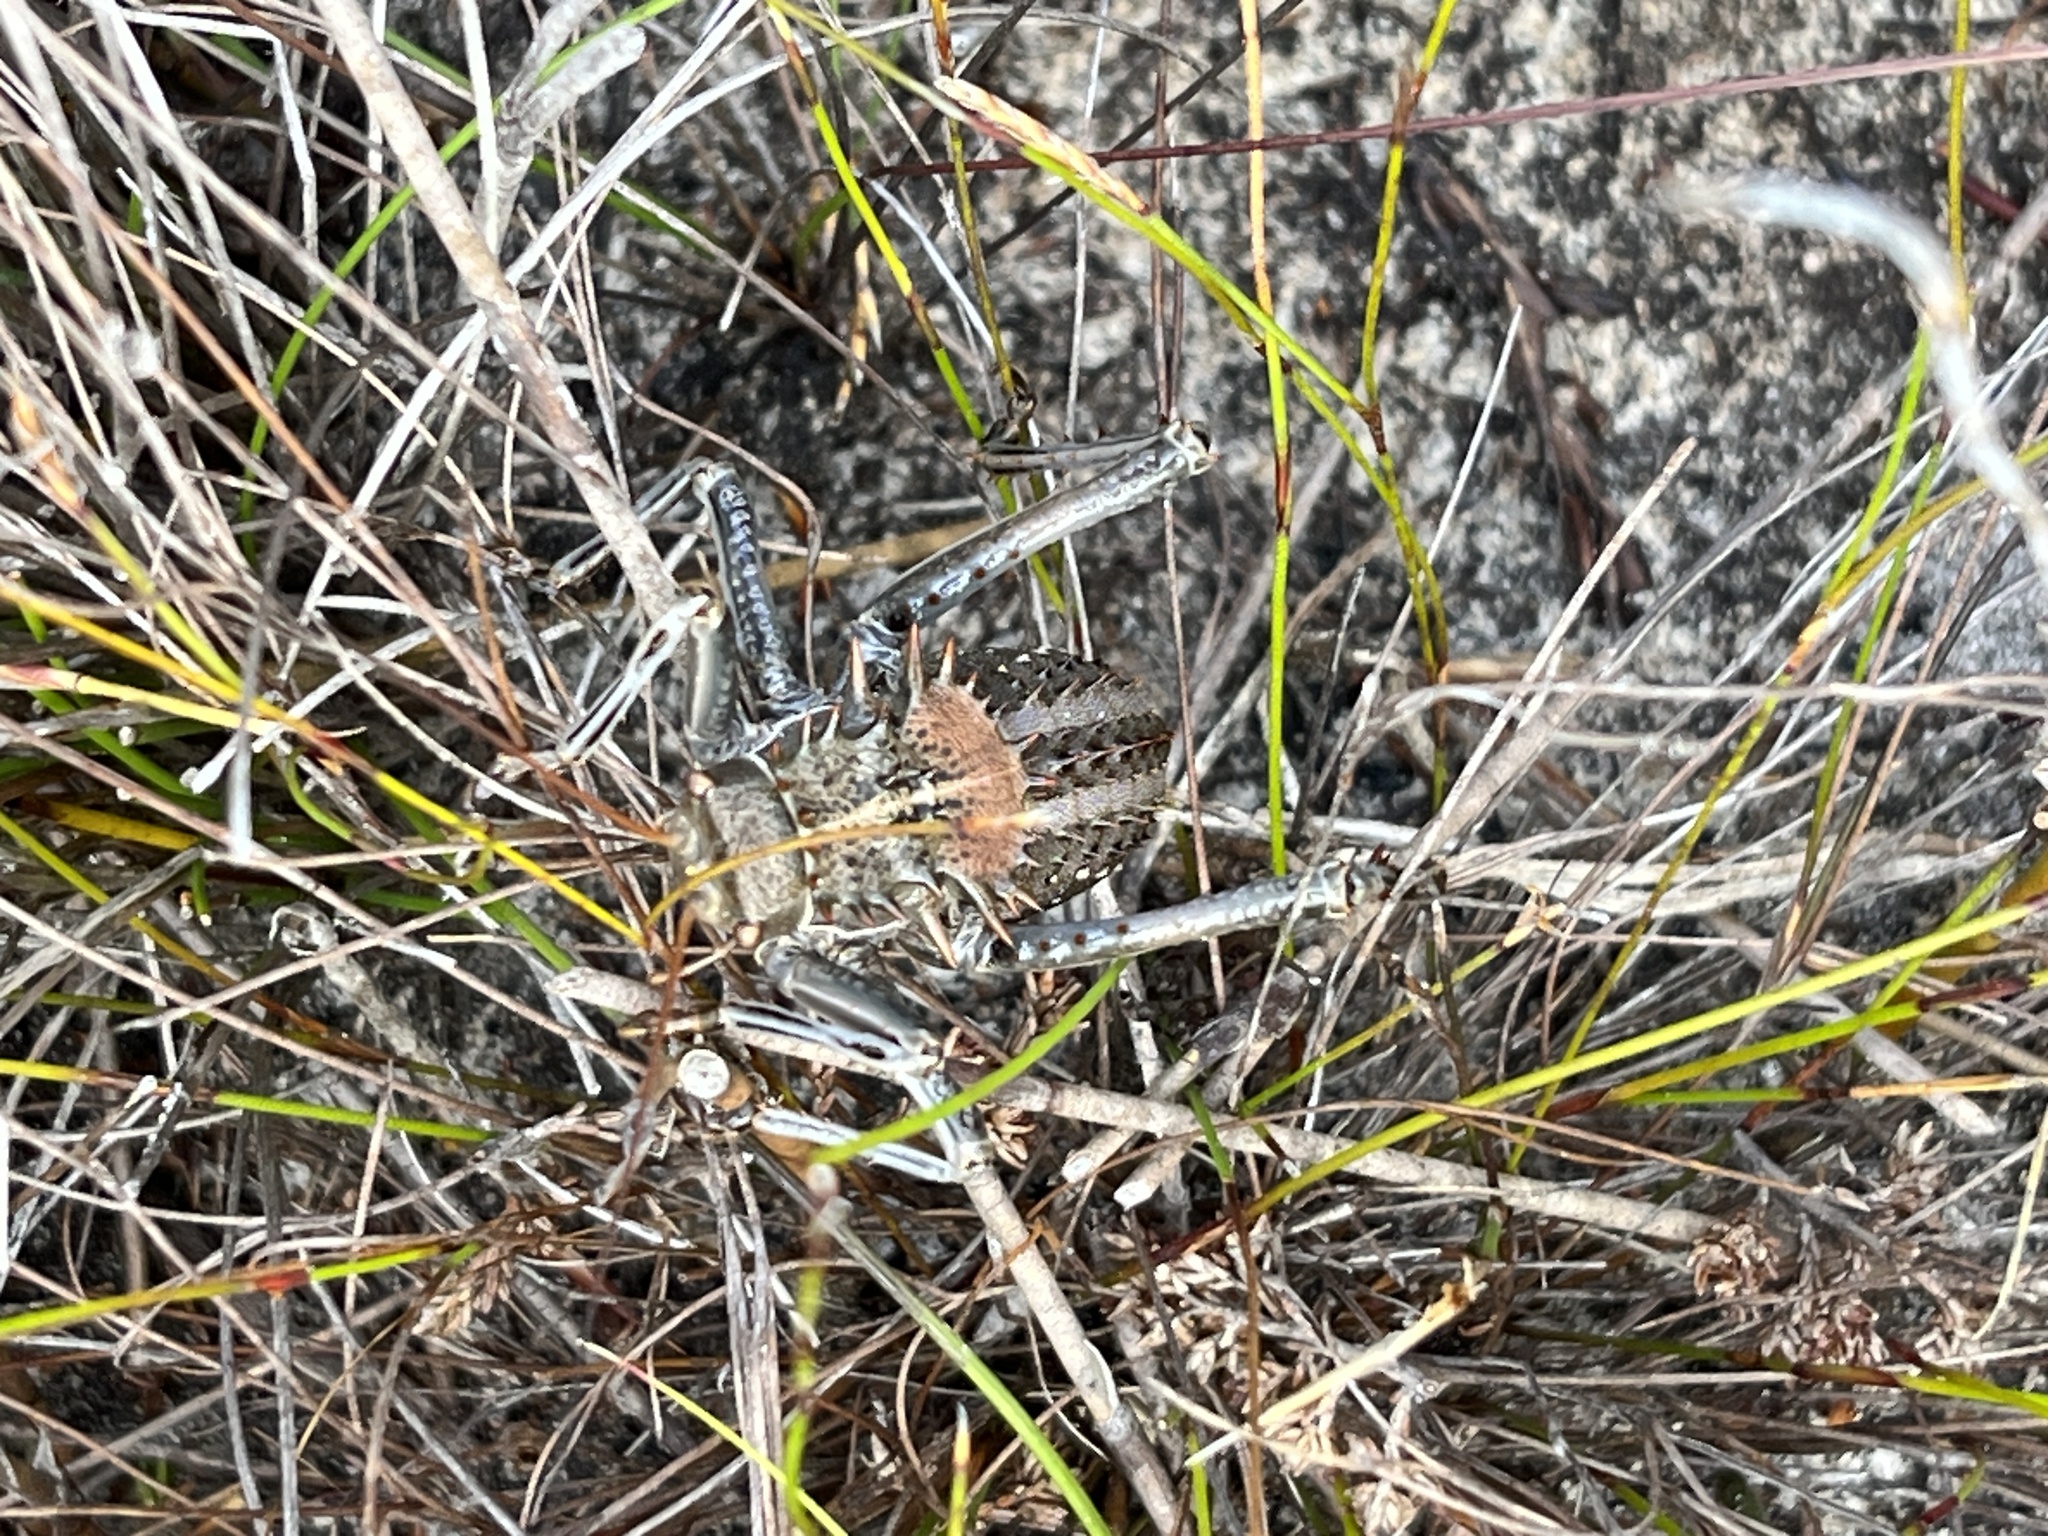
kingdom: Animalia
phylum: Arthropoda
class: Insecta
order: Orthoptera
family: Tettigoniidae
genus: Hetrodes
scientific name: Hetrodes pupus
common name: Koringkriek
